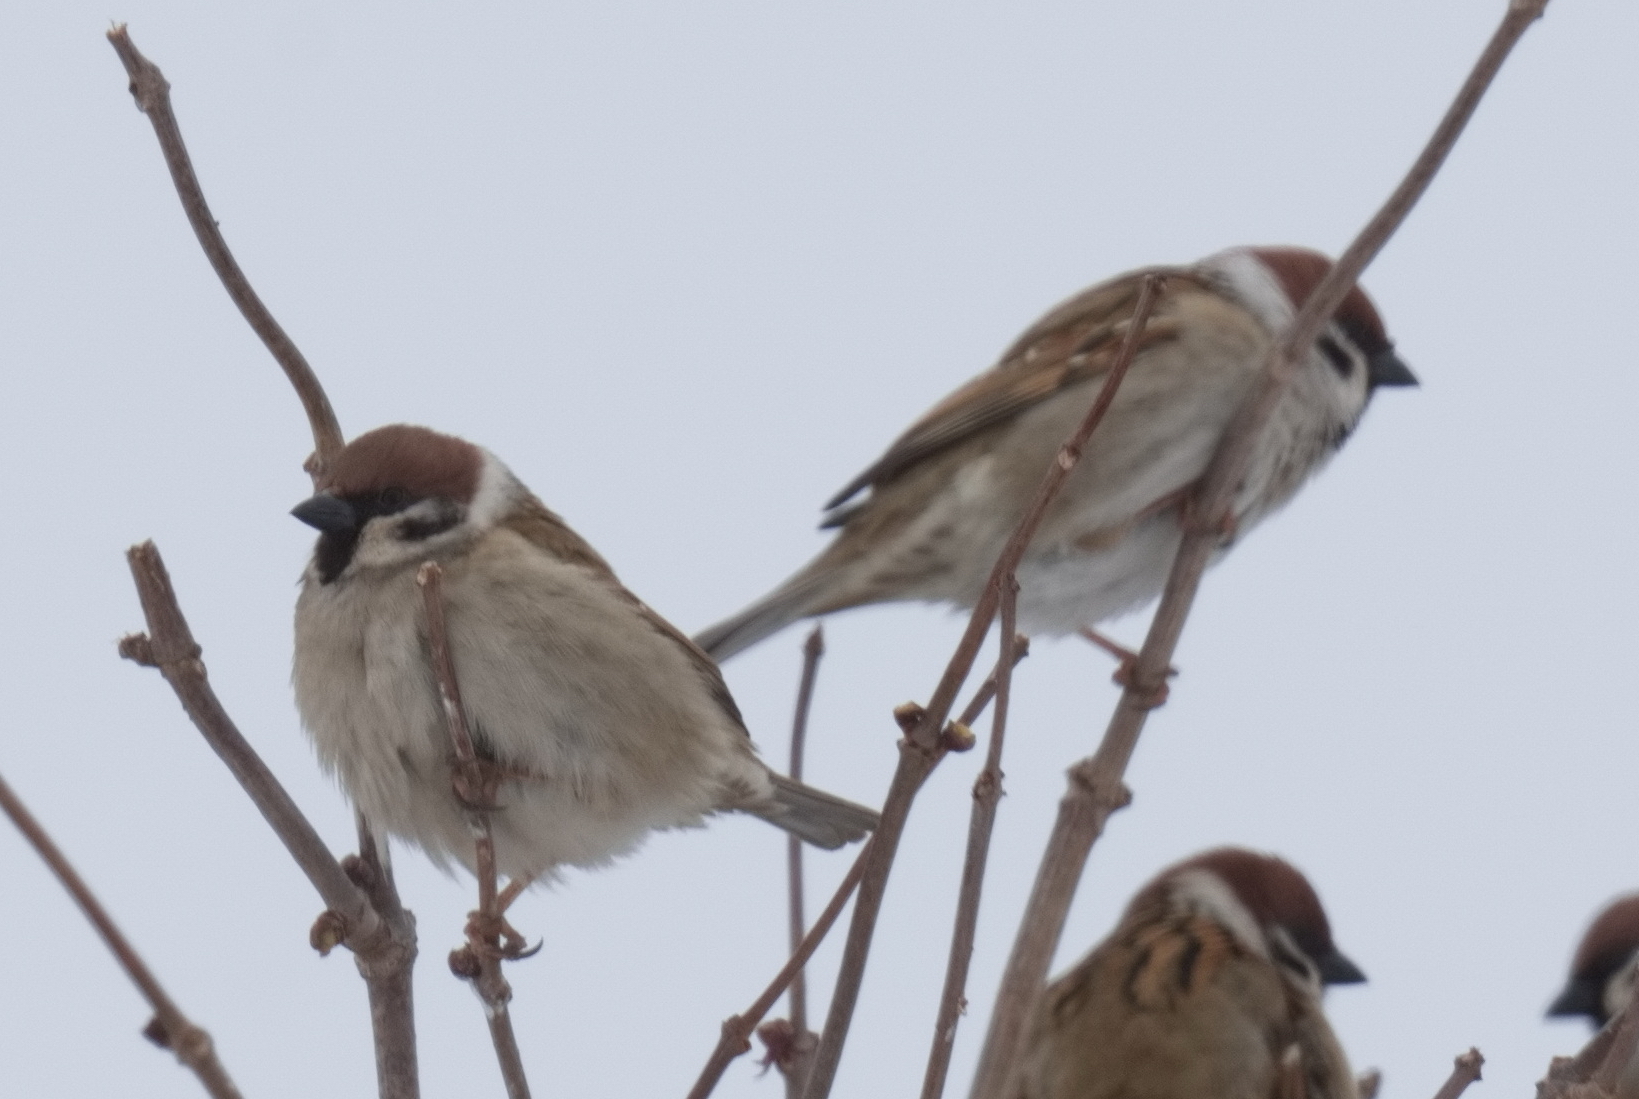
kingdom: Animalia
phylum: Chordata
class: Aves
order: Passeriformes
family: Passeridae
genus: Passer
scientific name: Passer montanus
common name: Eurasian tree sparrow
